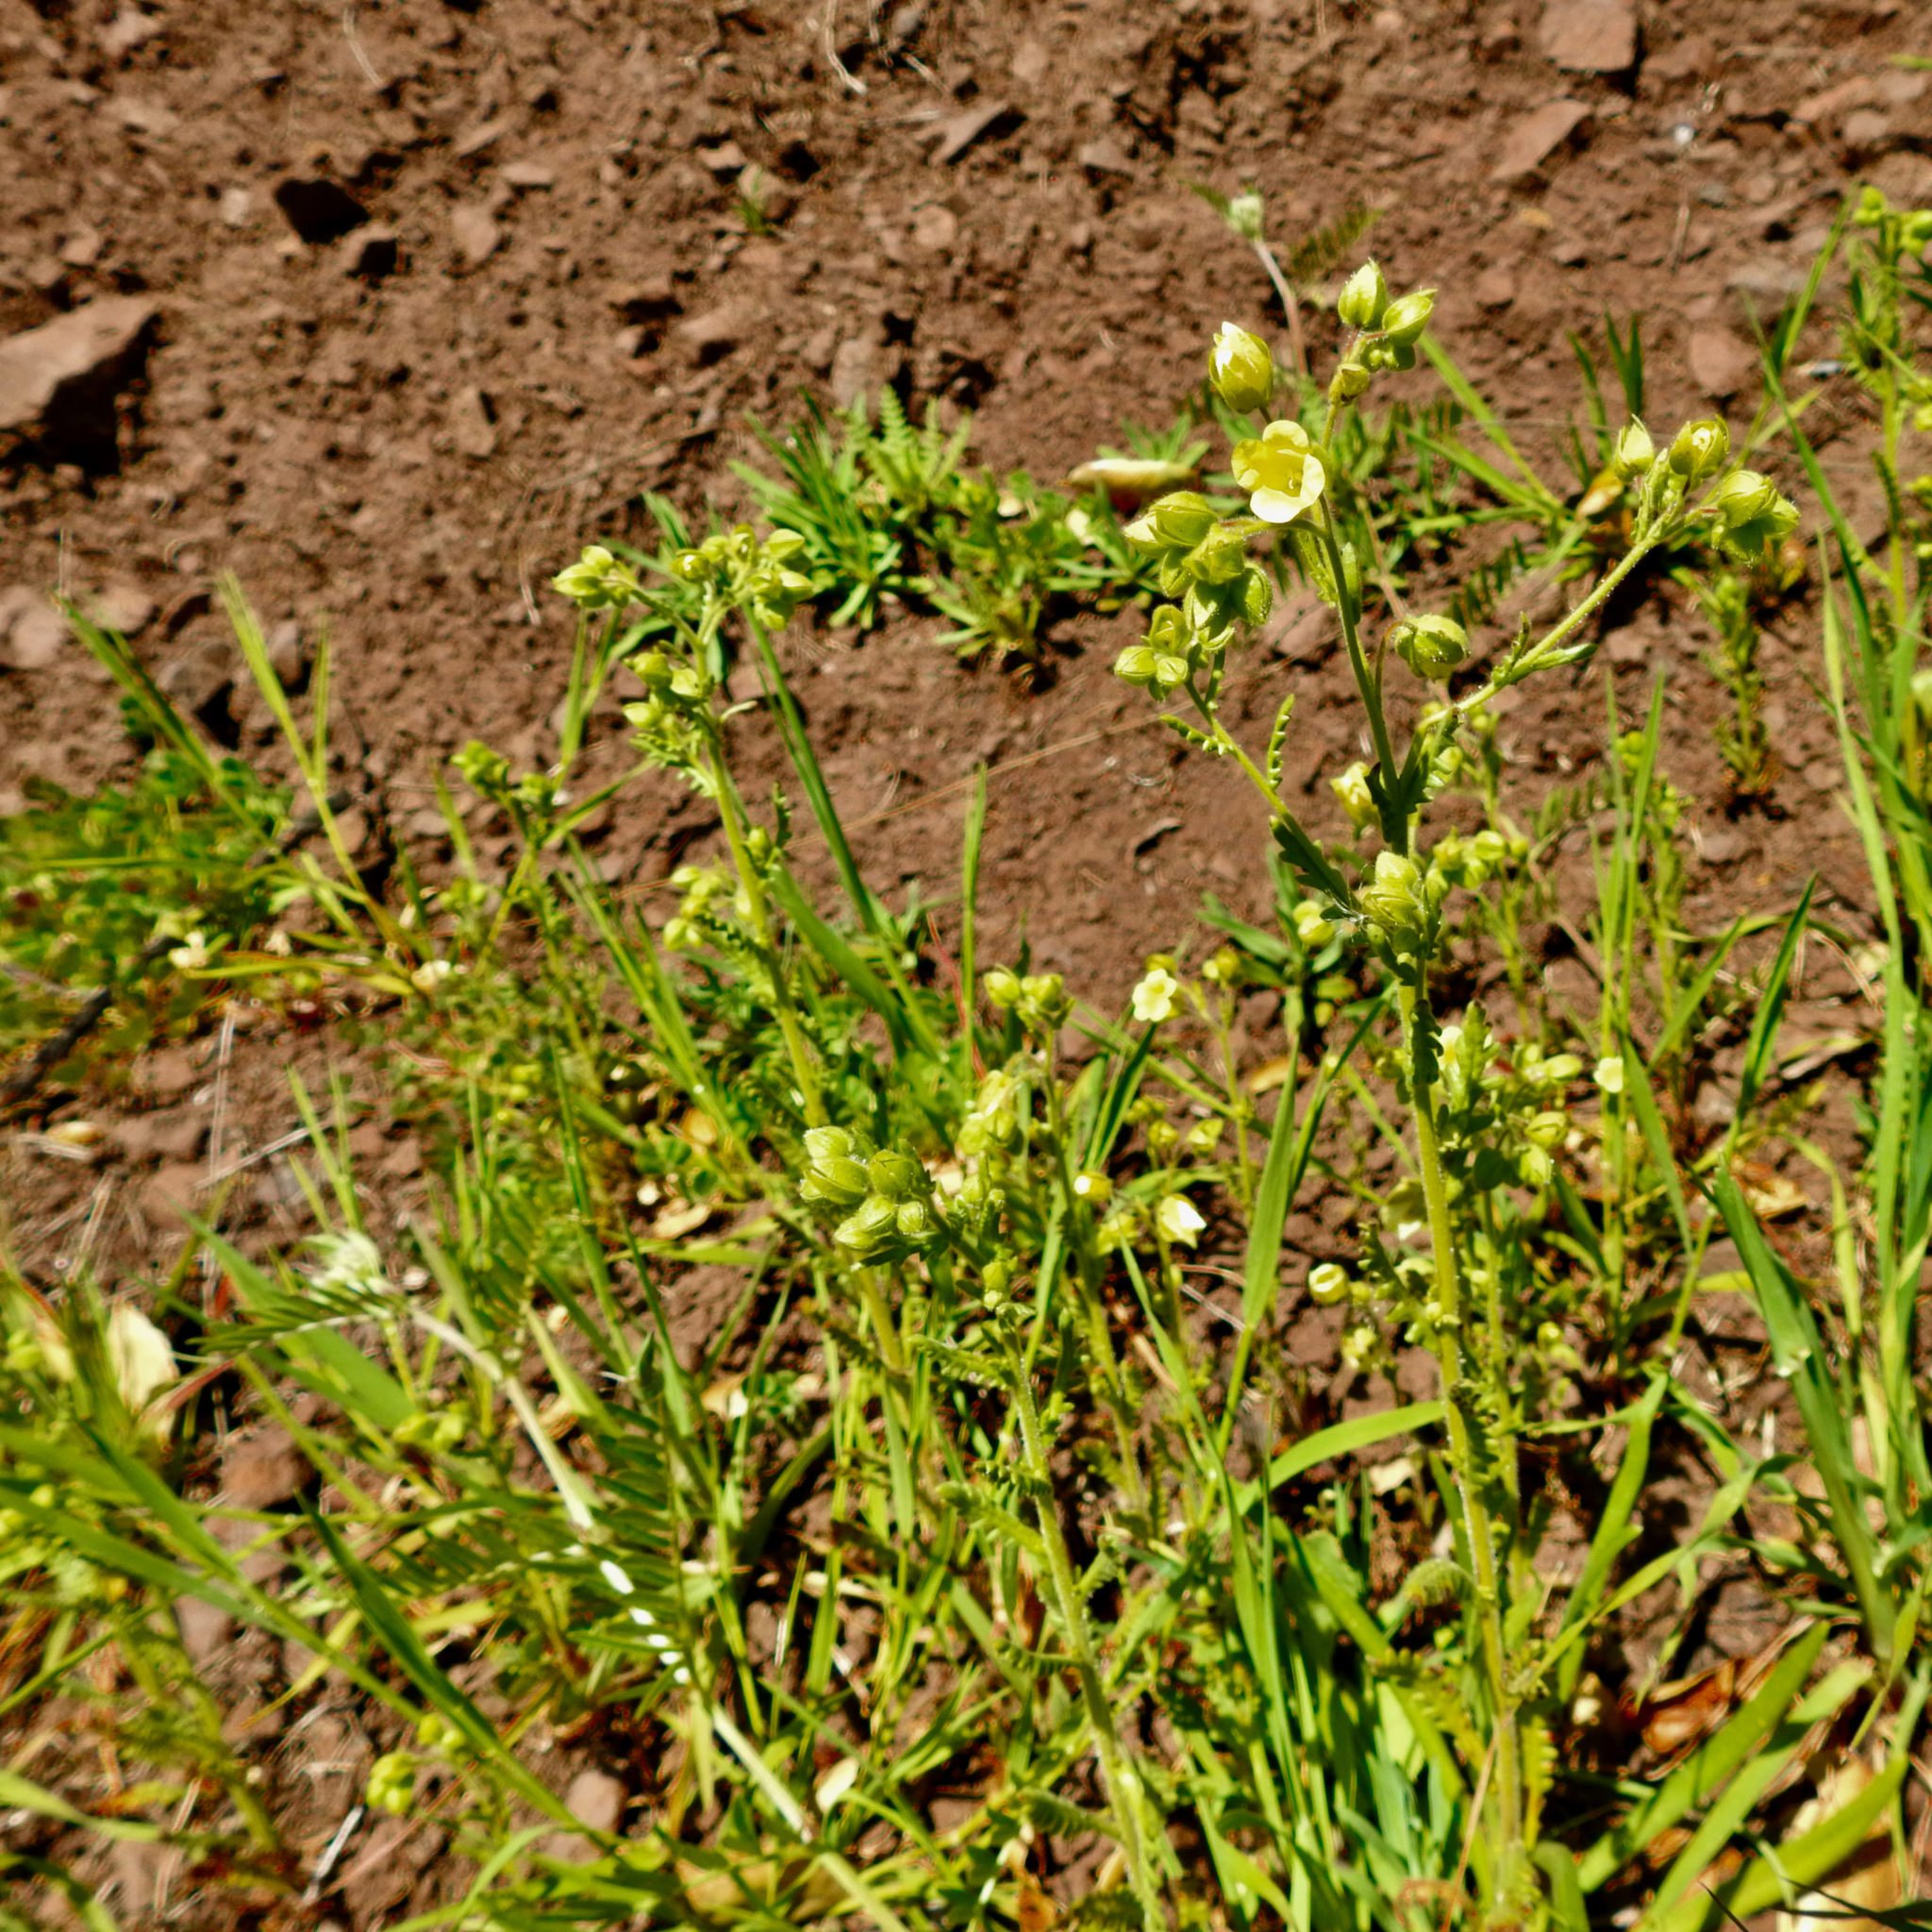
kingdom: Plantae
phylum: Tracheophyta
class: Magnoliopsida
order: Boraginales
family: Hydrophyllaceae
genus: Emmenanthe
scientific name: Emmenanthe penduliflora
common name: Whispering-bells
